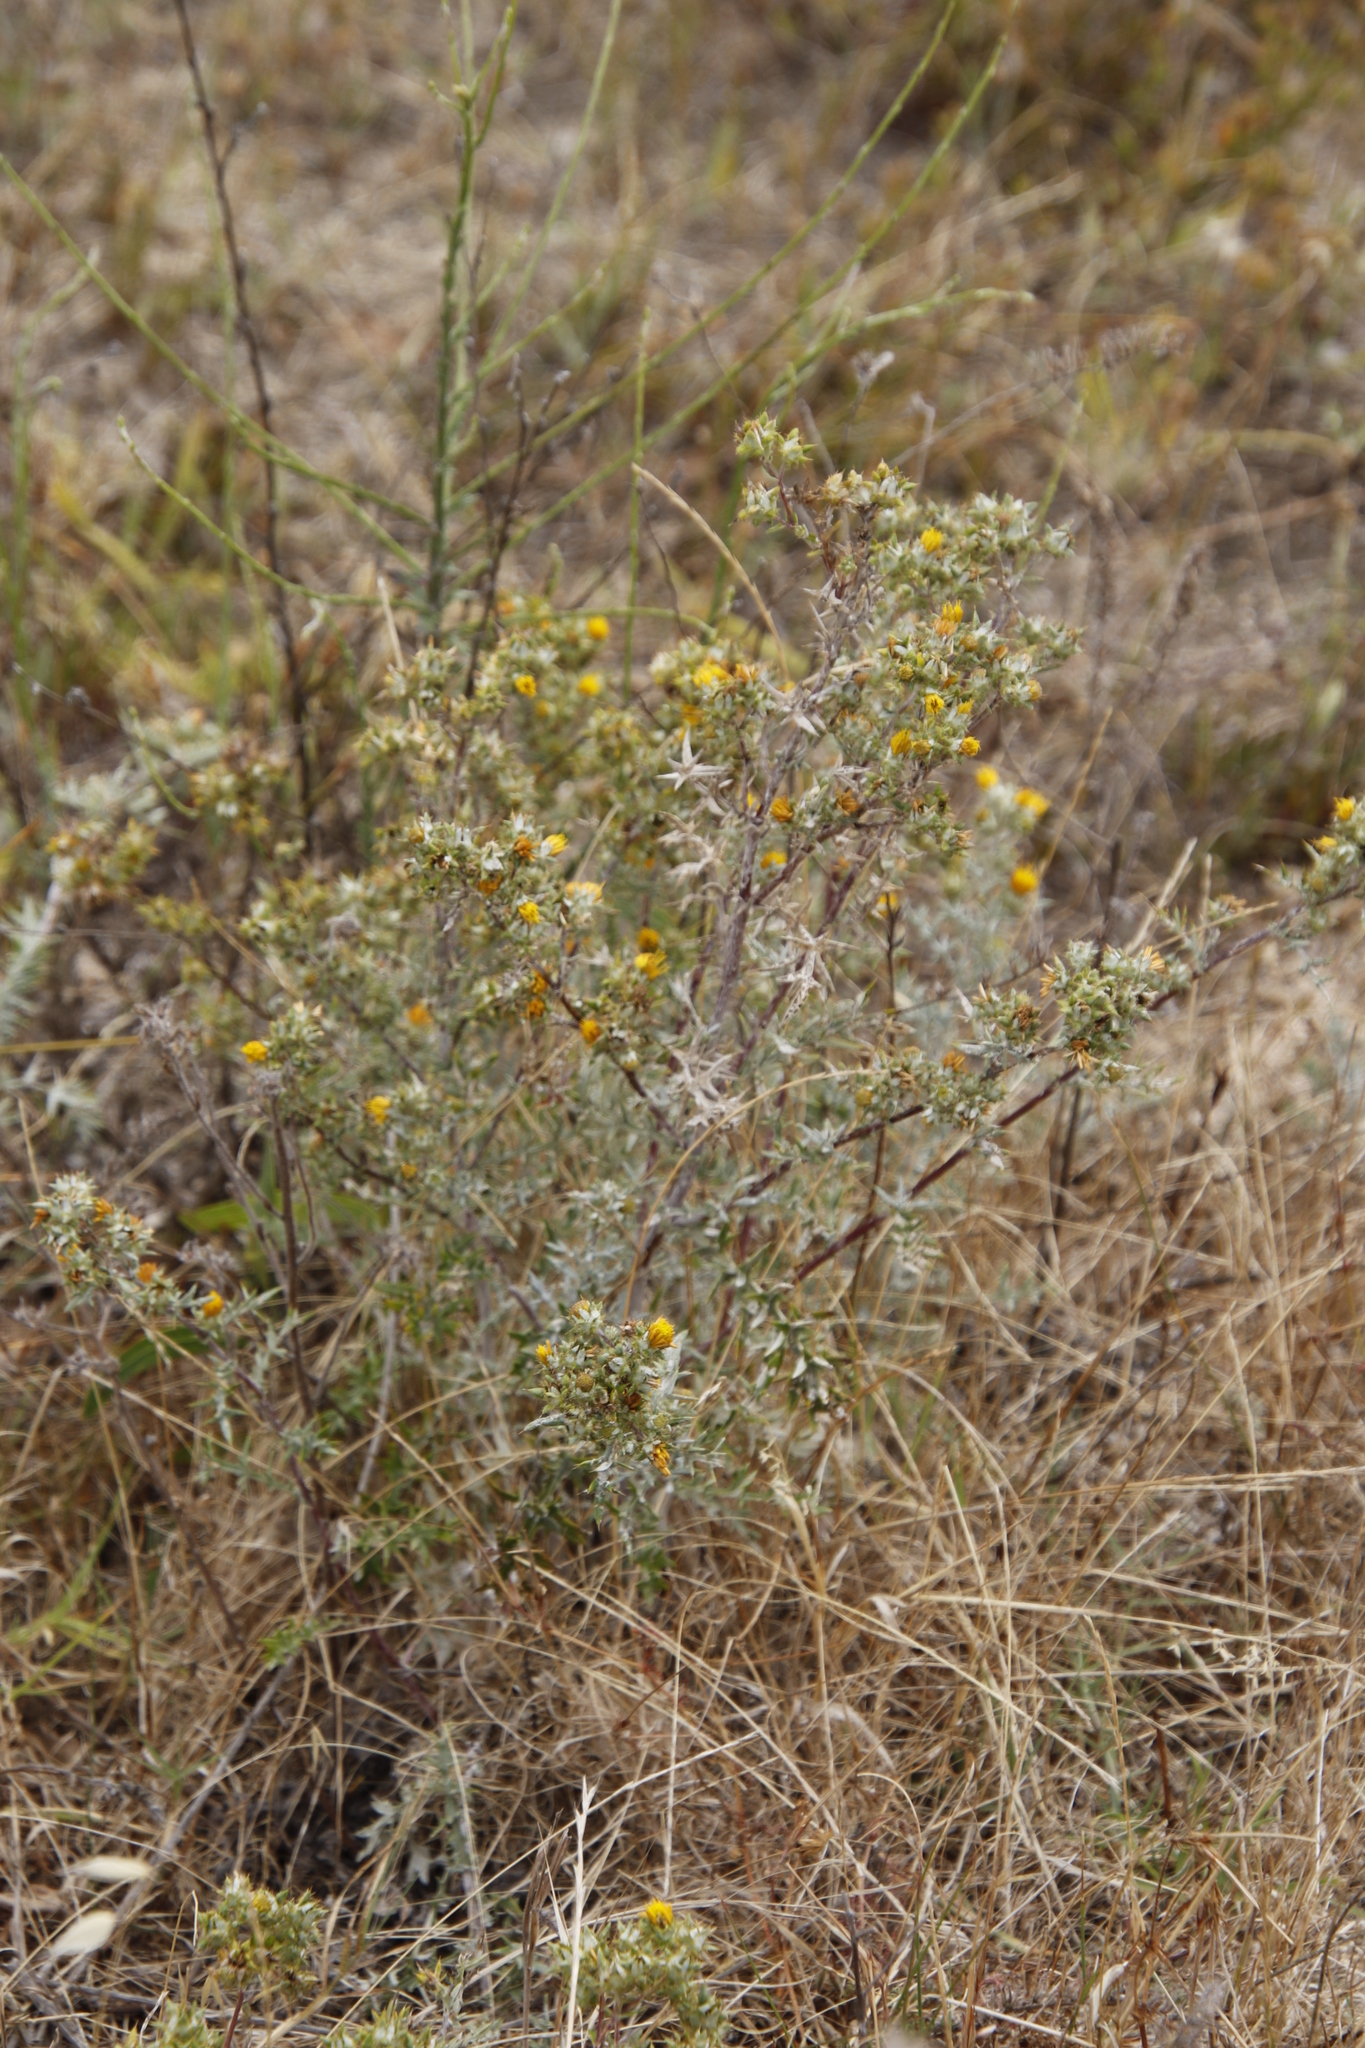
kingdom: Plantae
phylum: Tracheophyta
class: Magnoliopsida
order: Asterales
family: Asteraceae
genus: Berkheya
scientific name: Berkheya rigida
